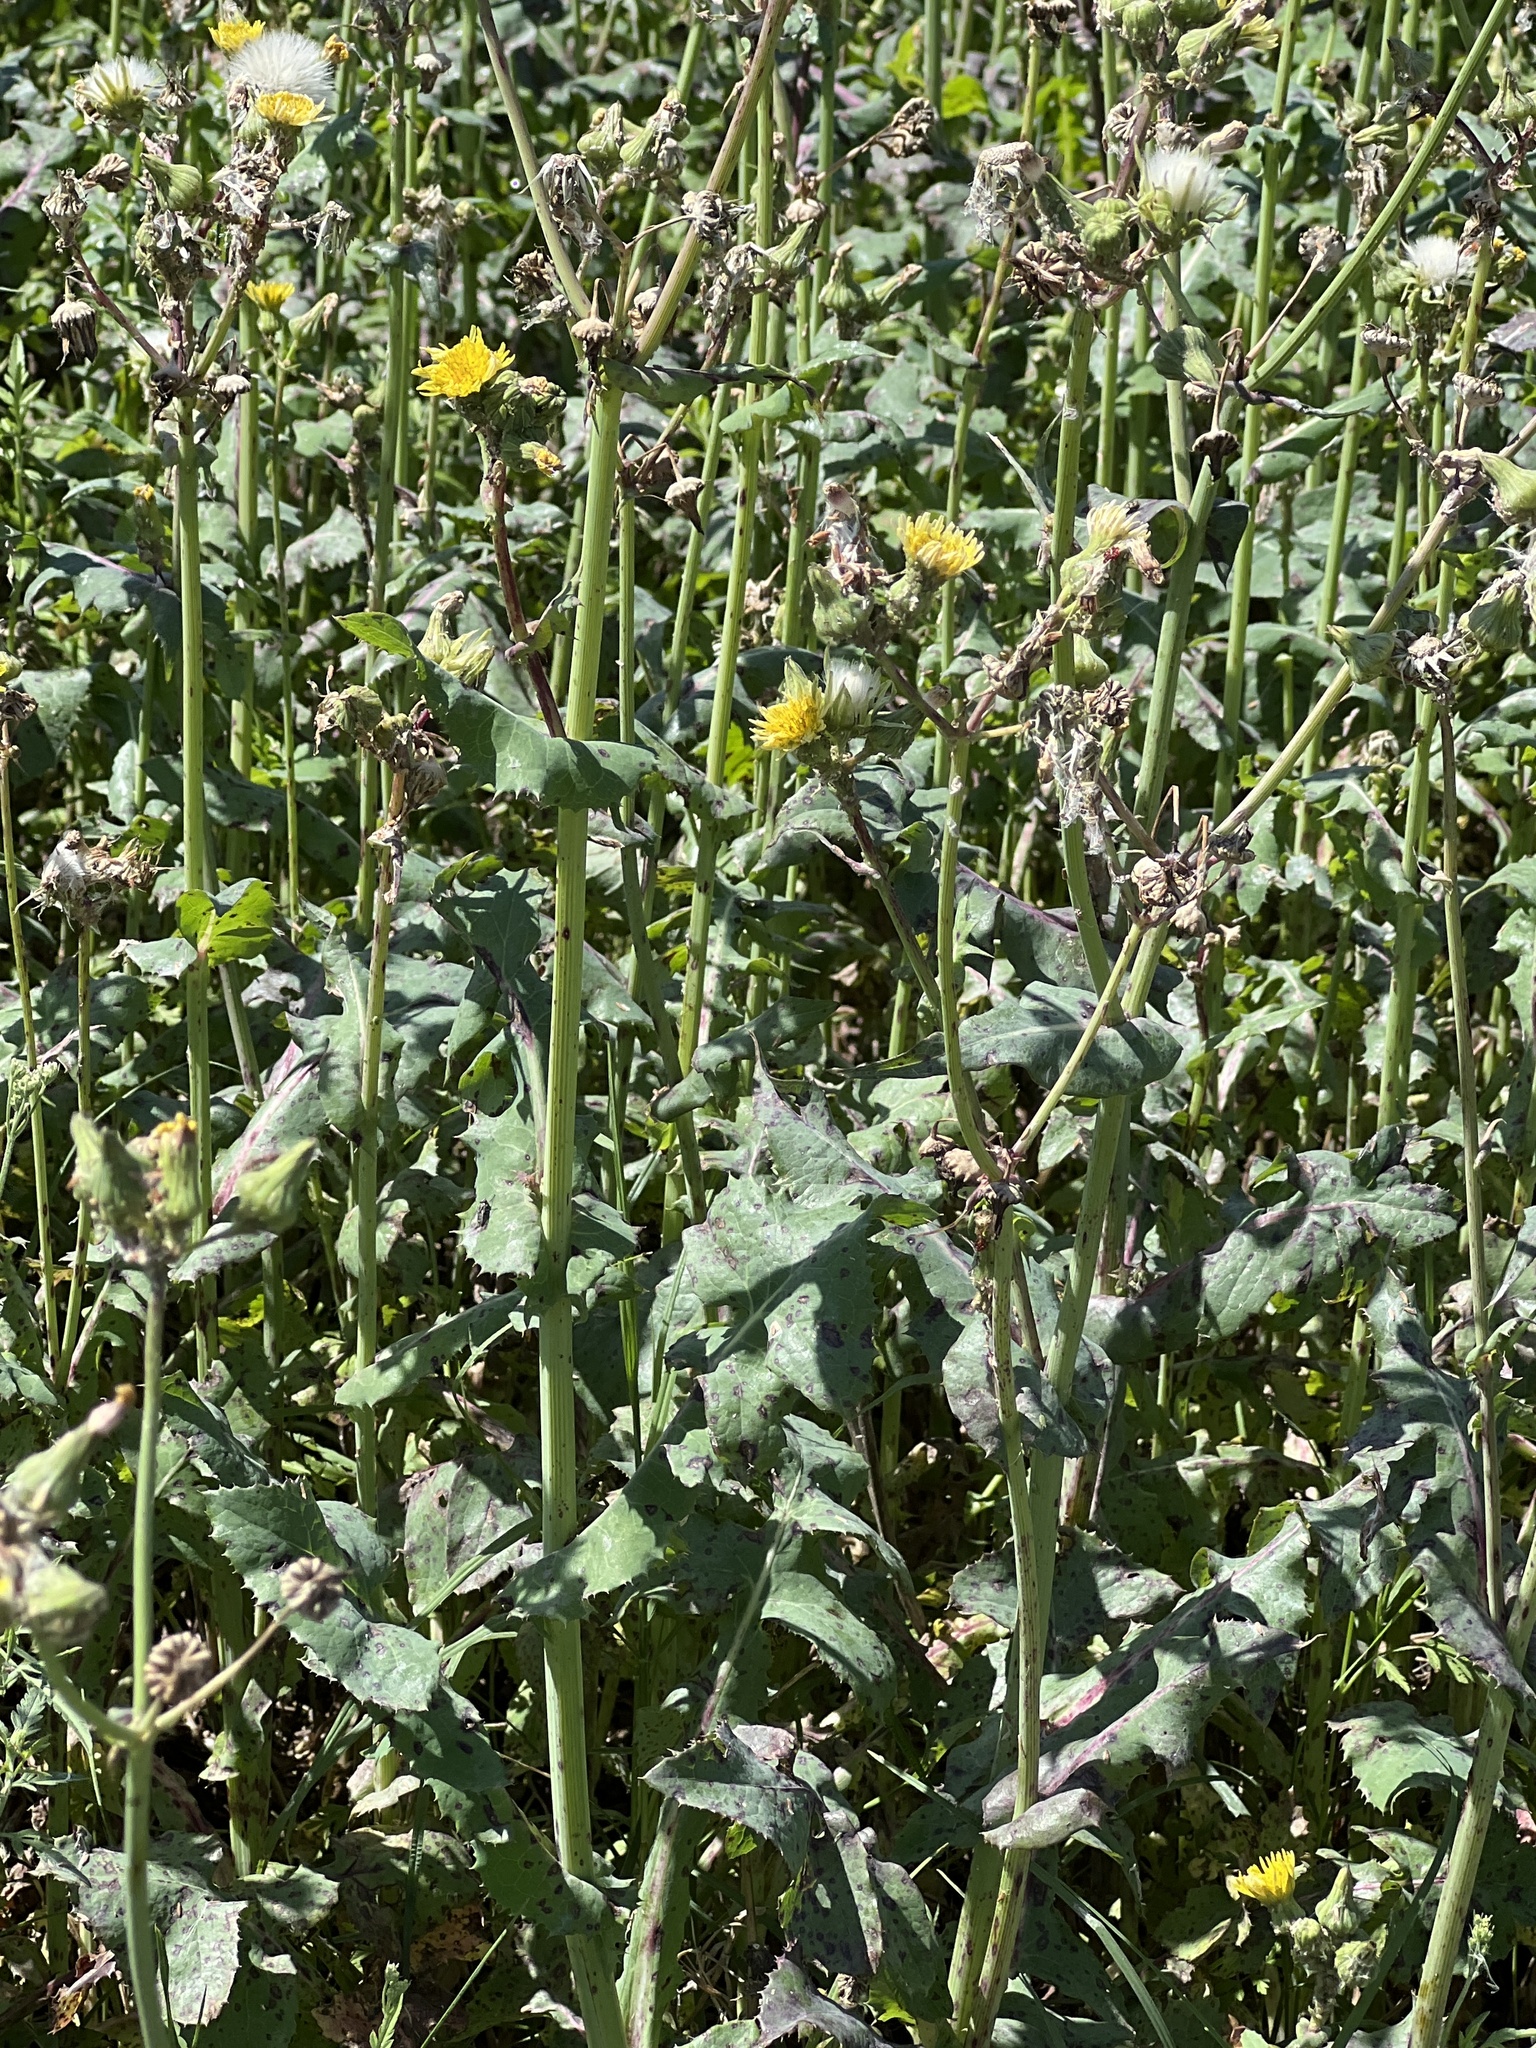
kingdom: Plantae
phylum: Tracheophyta
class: Magnoliopsida
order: Asterales
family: Asteraceae
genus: Sonchus
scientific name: Sonchus oleraceus
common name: Common sowthistle
